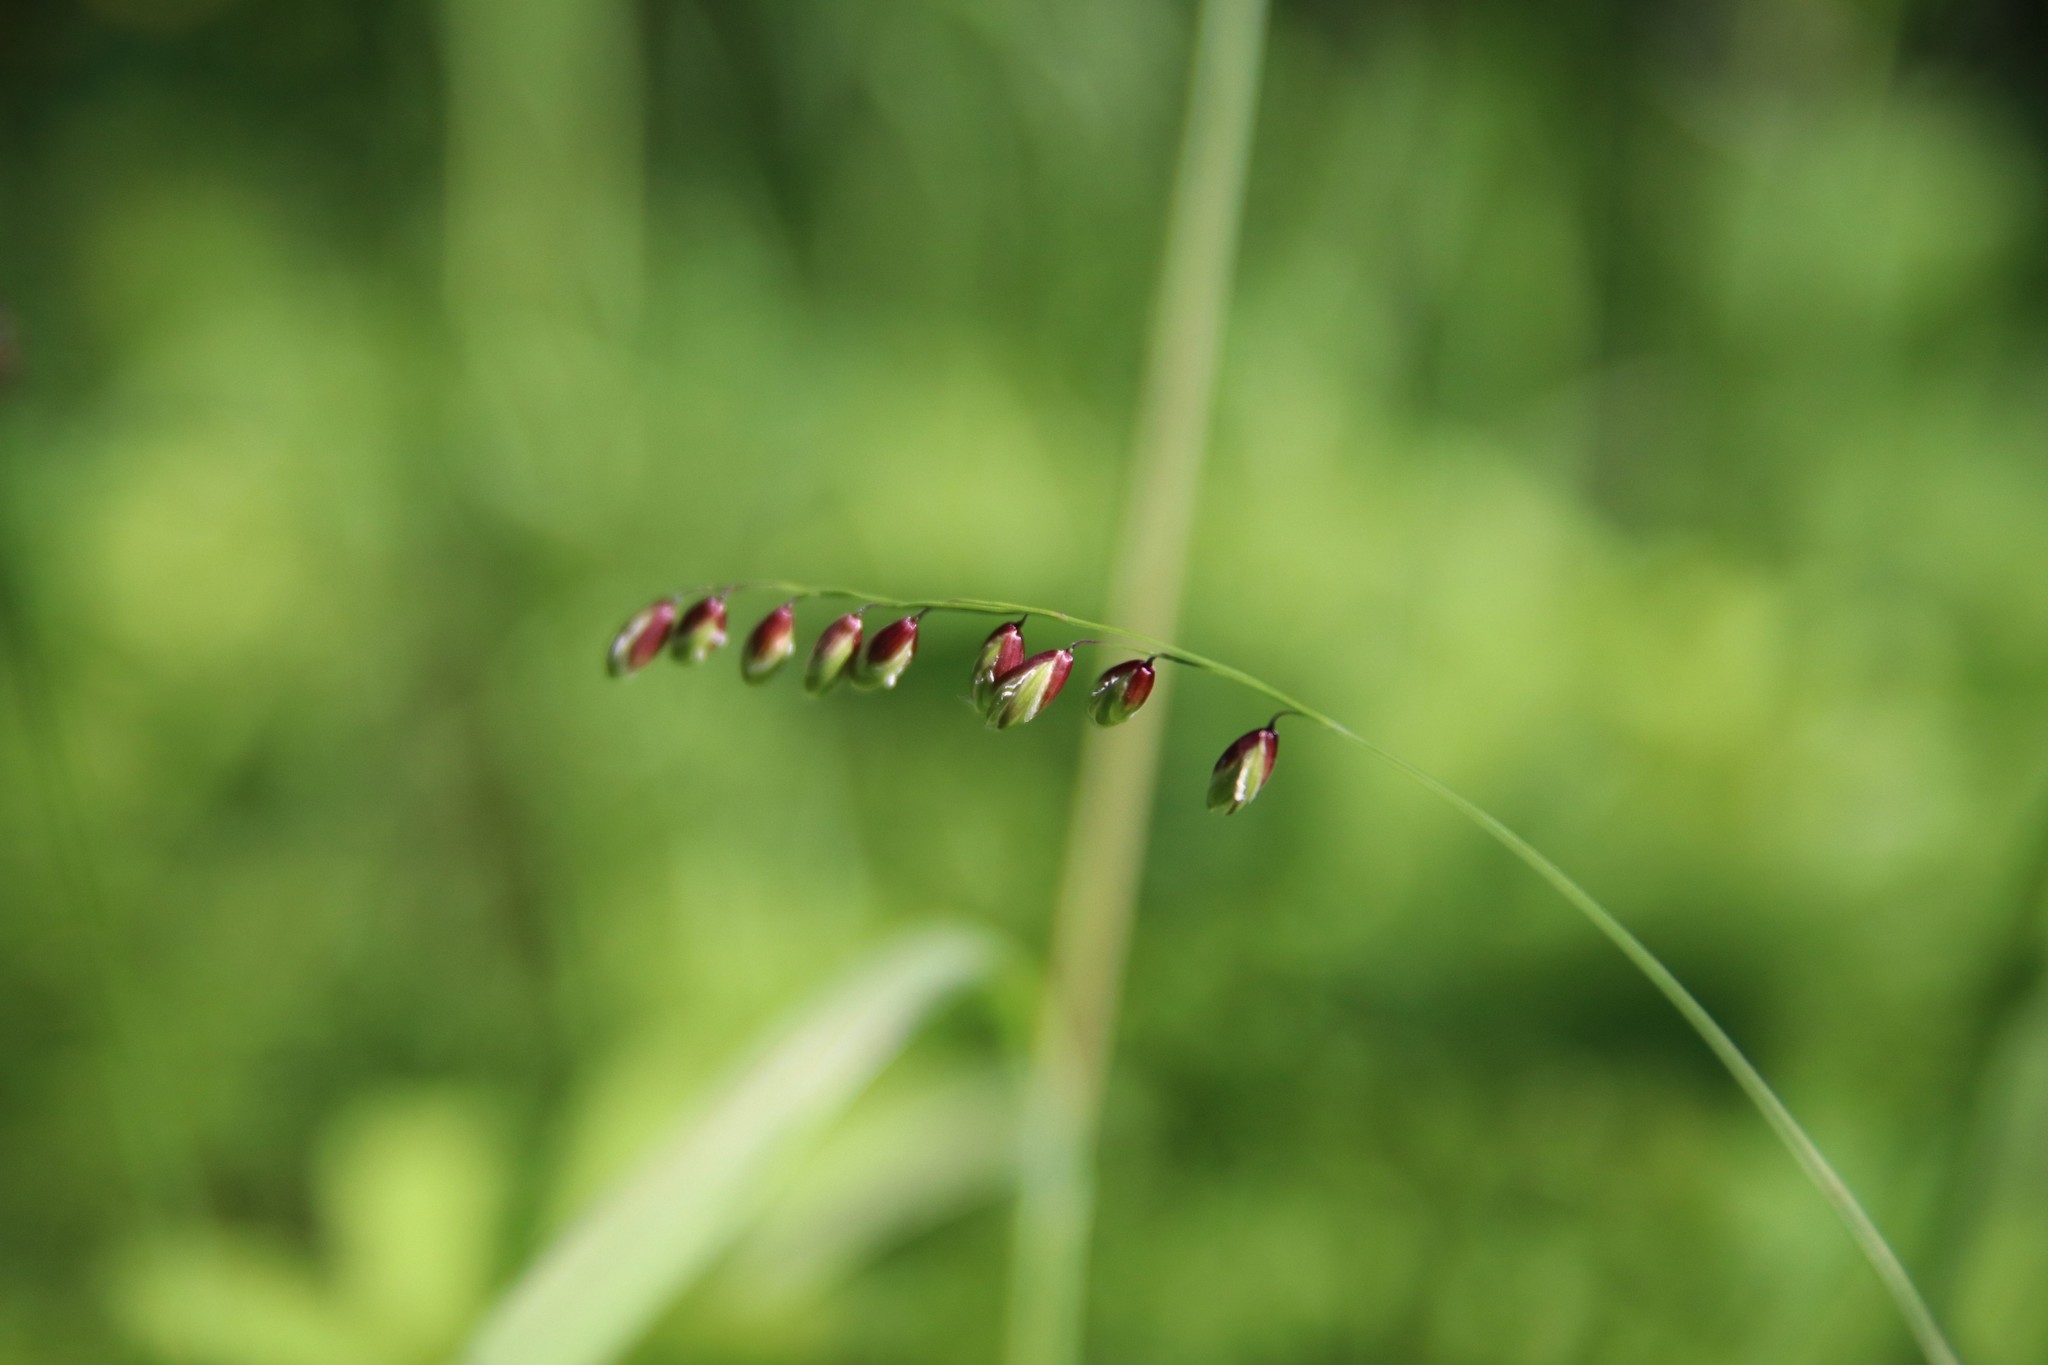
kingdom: Plantae
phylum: Tracheophyta
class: Liliopsida
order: Poales
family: Poaceae
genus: Melica
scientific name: Melica nutans
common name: Mountain melick
